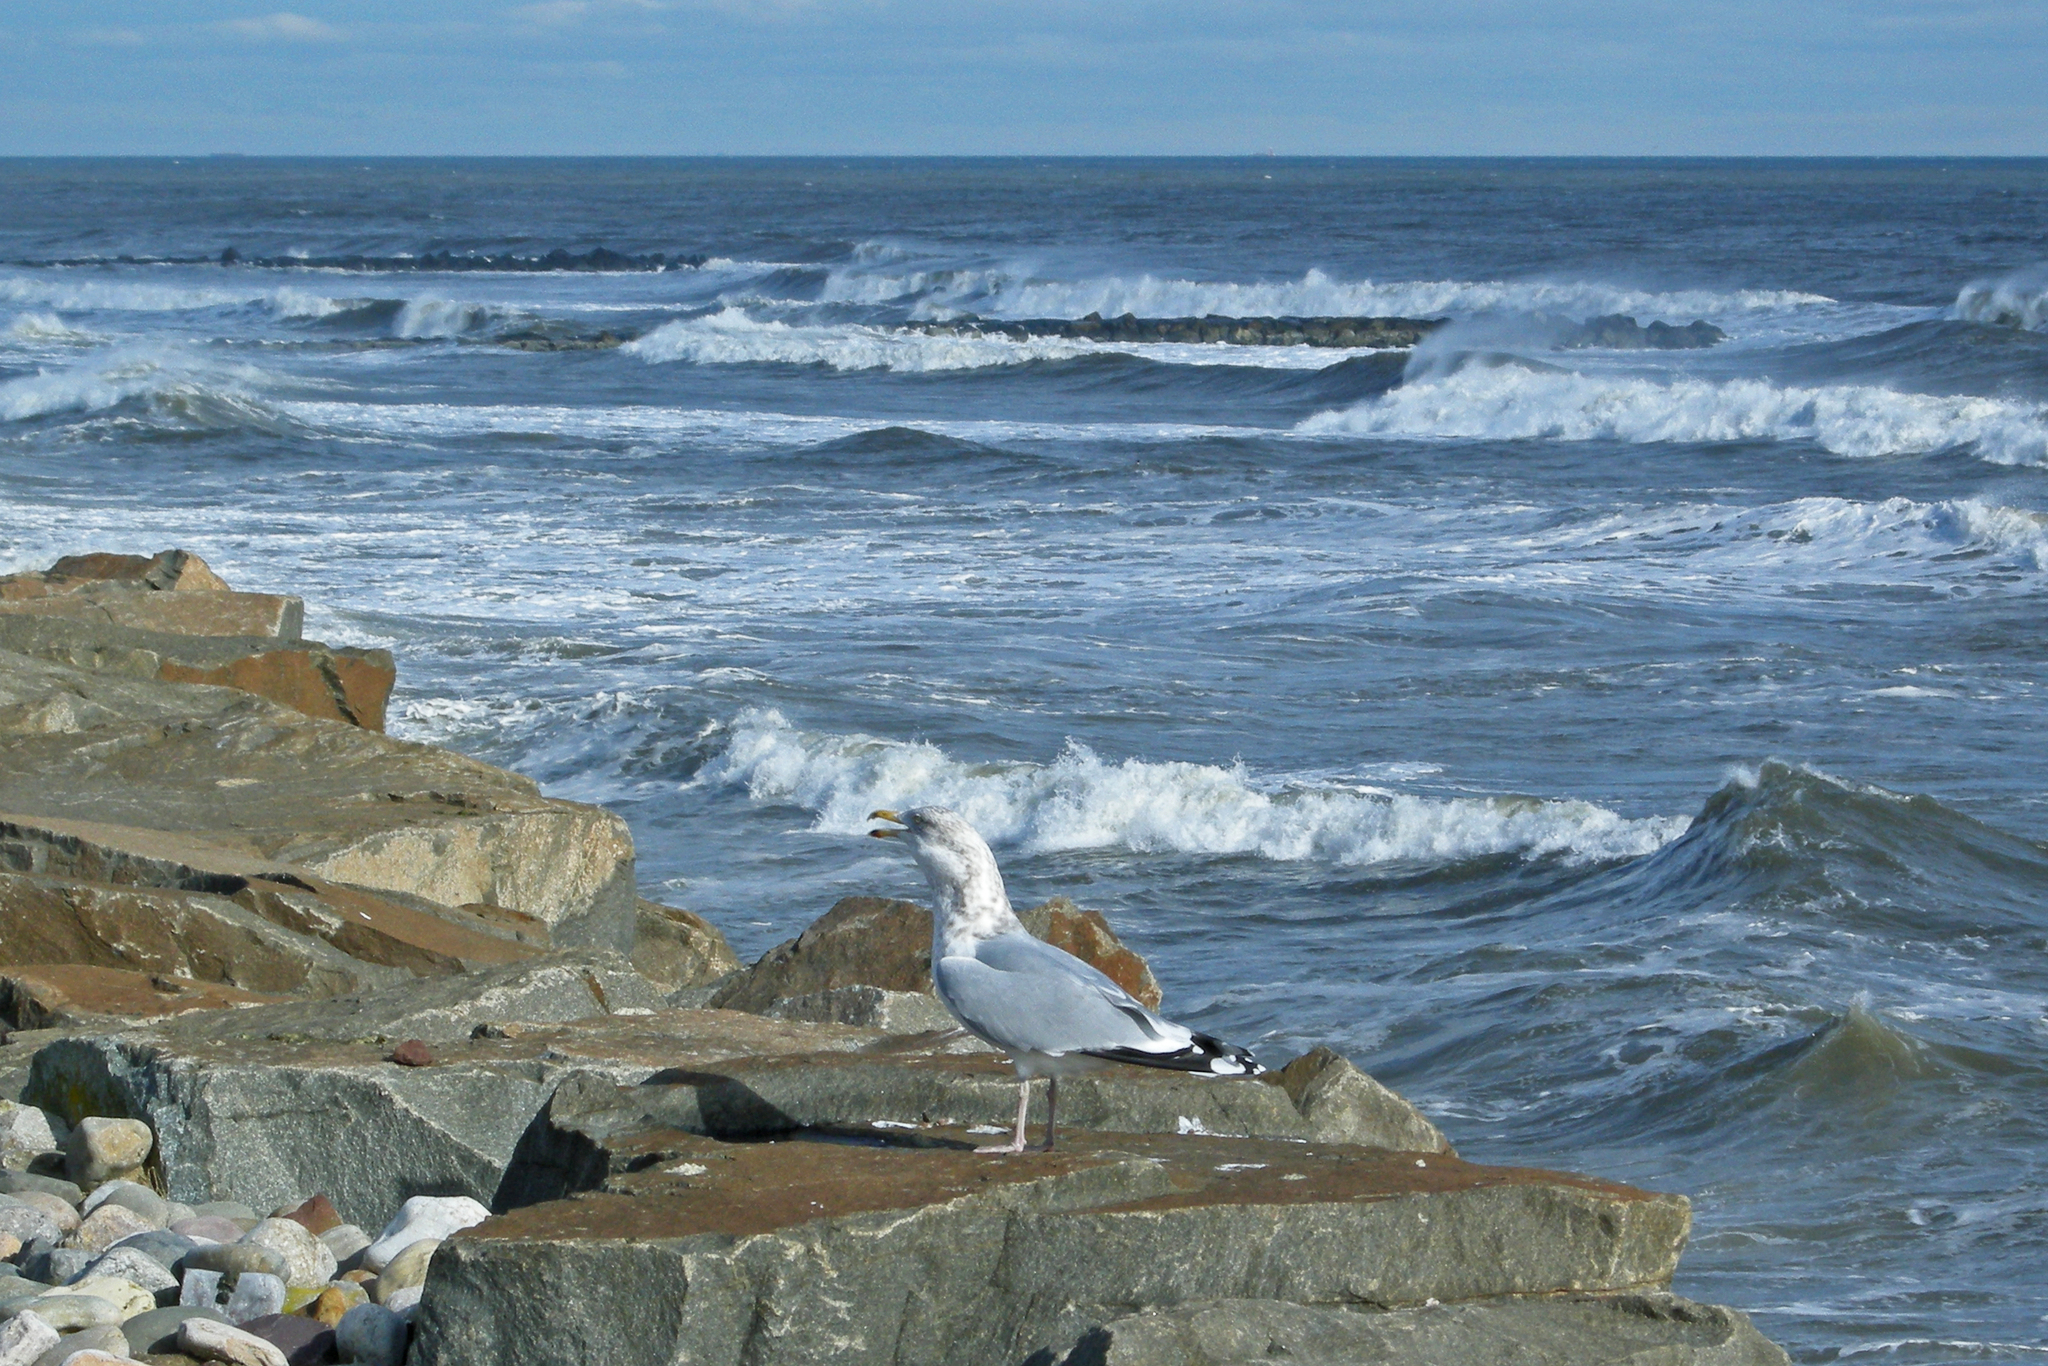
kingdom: Animalia
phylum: Chordata
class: Aves
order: Charadriiformes
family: Laridae
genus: Larus
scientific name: Larus argentatus
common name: Herring gull
